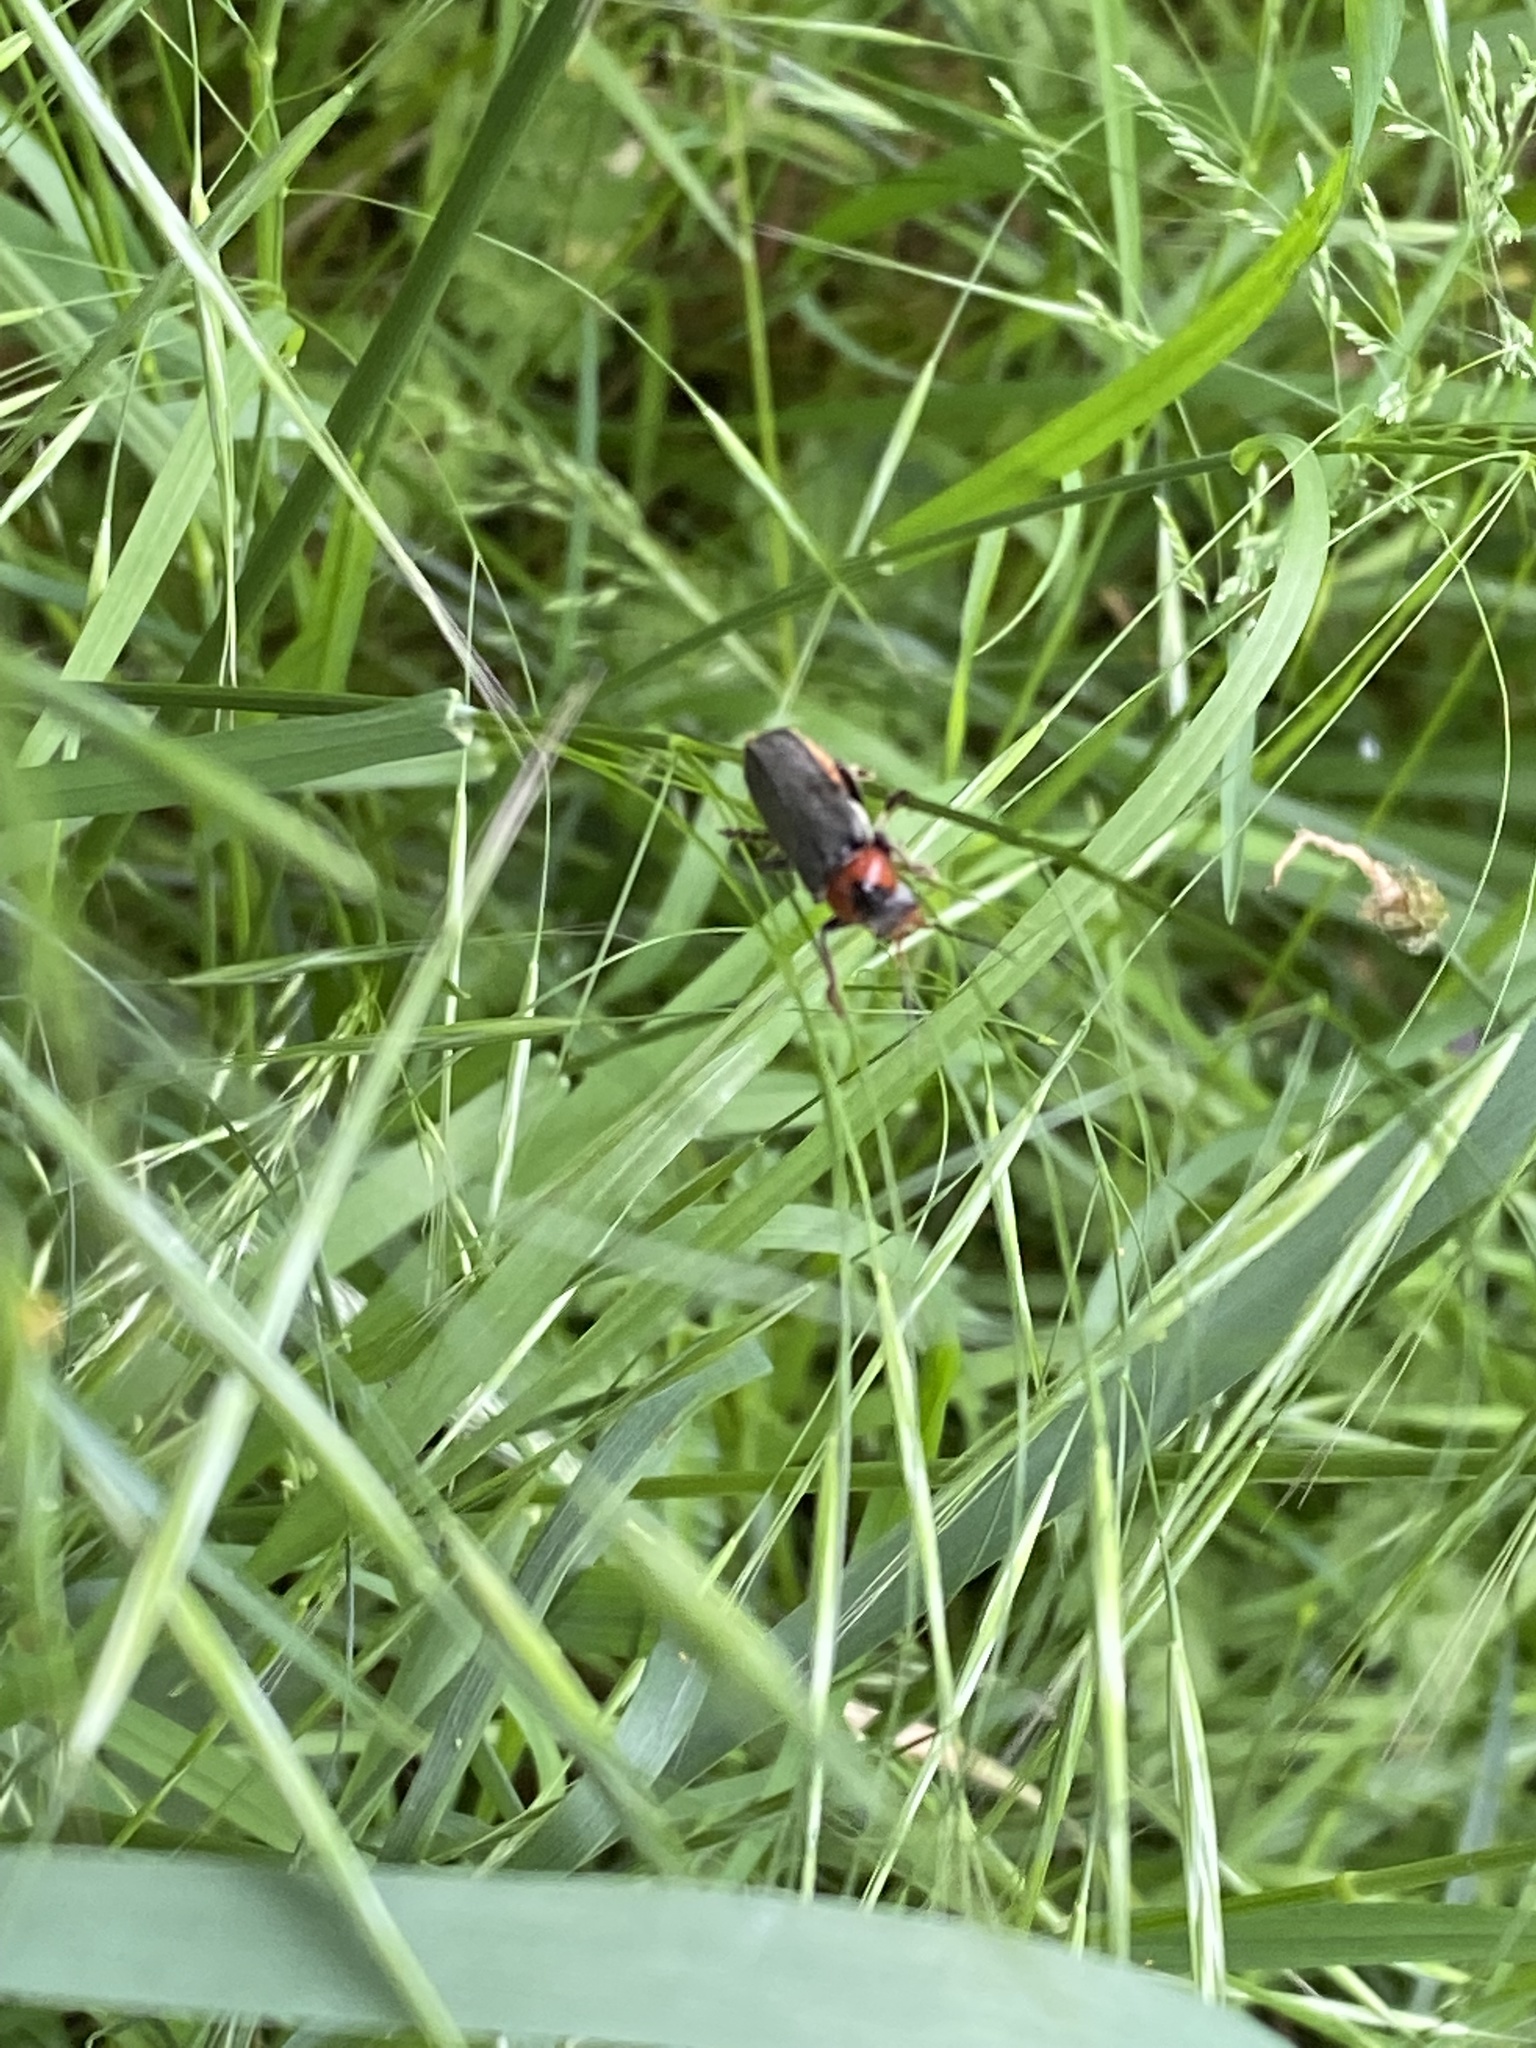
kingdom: Animalia
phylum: Arthropoda
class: Insecta
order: Coleoptera
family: Cantharidae
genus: Cantharis
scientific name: Cantharis fusca
